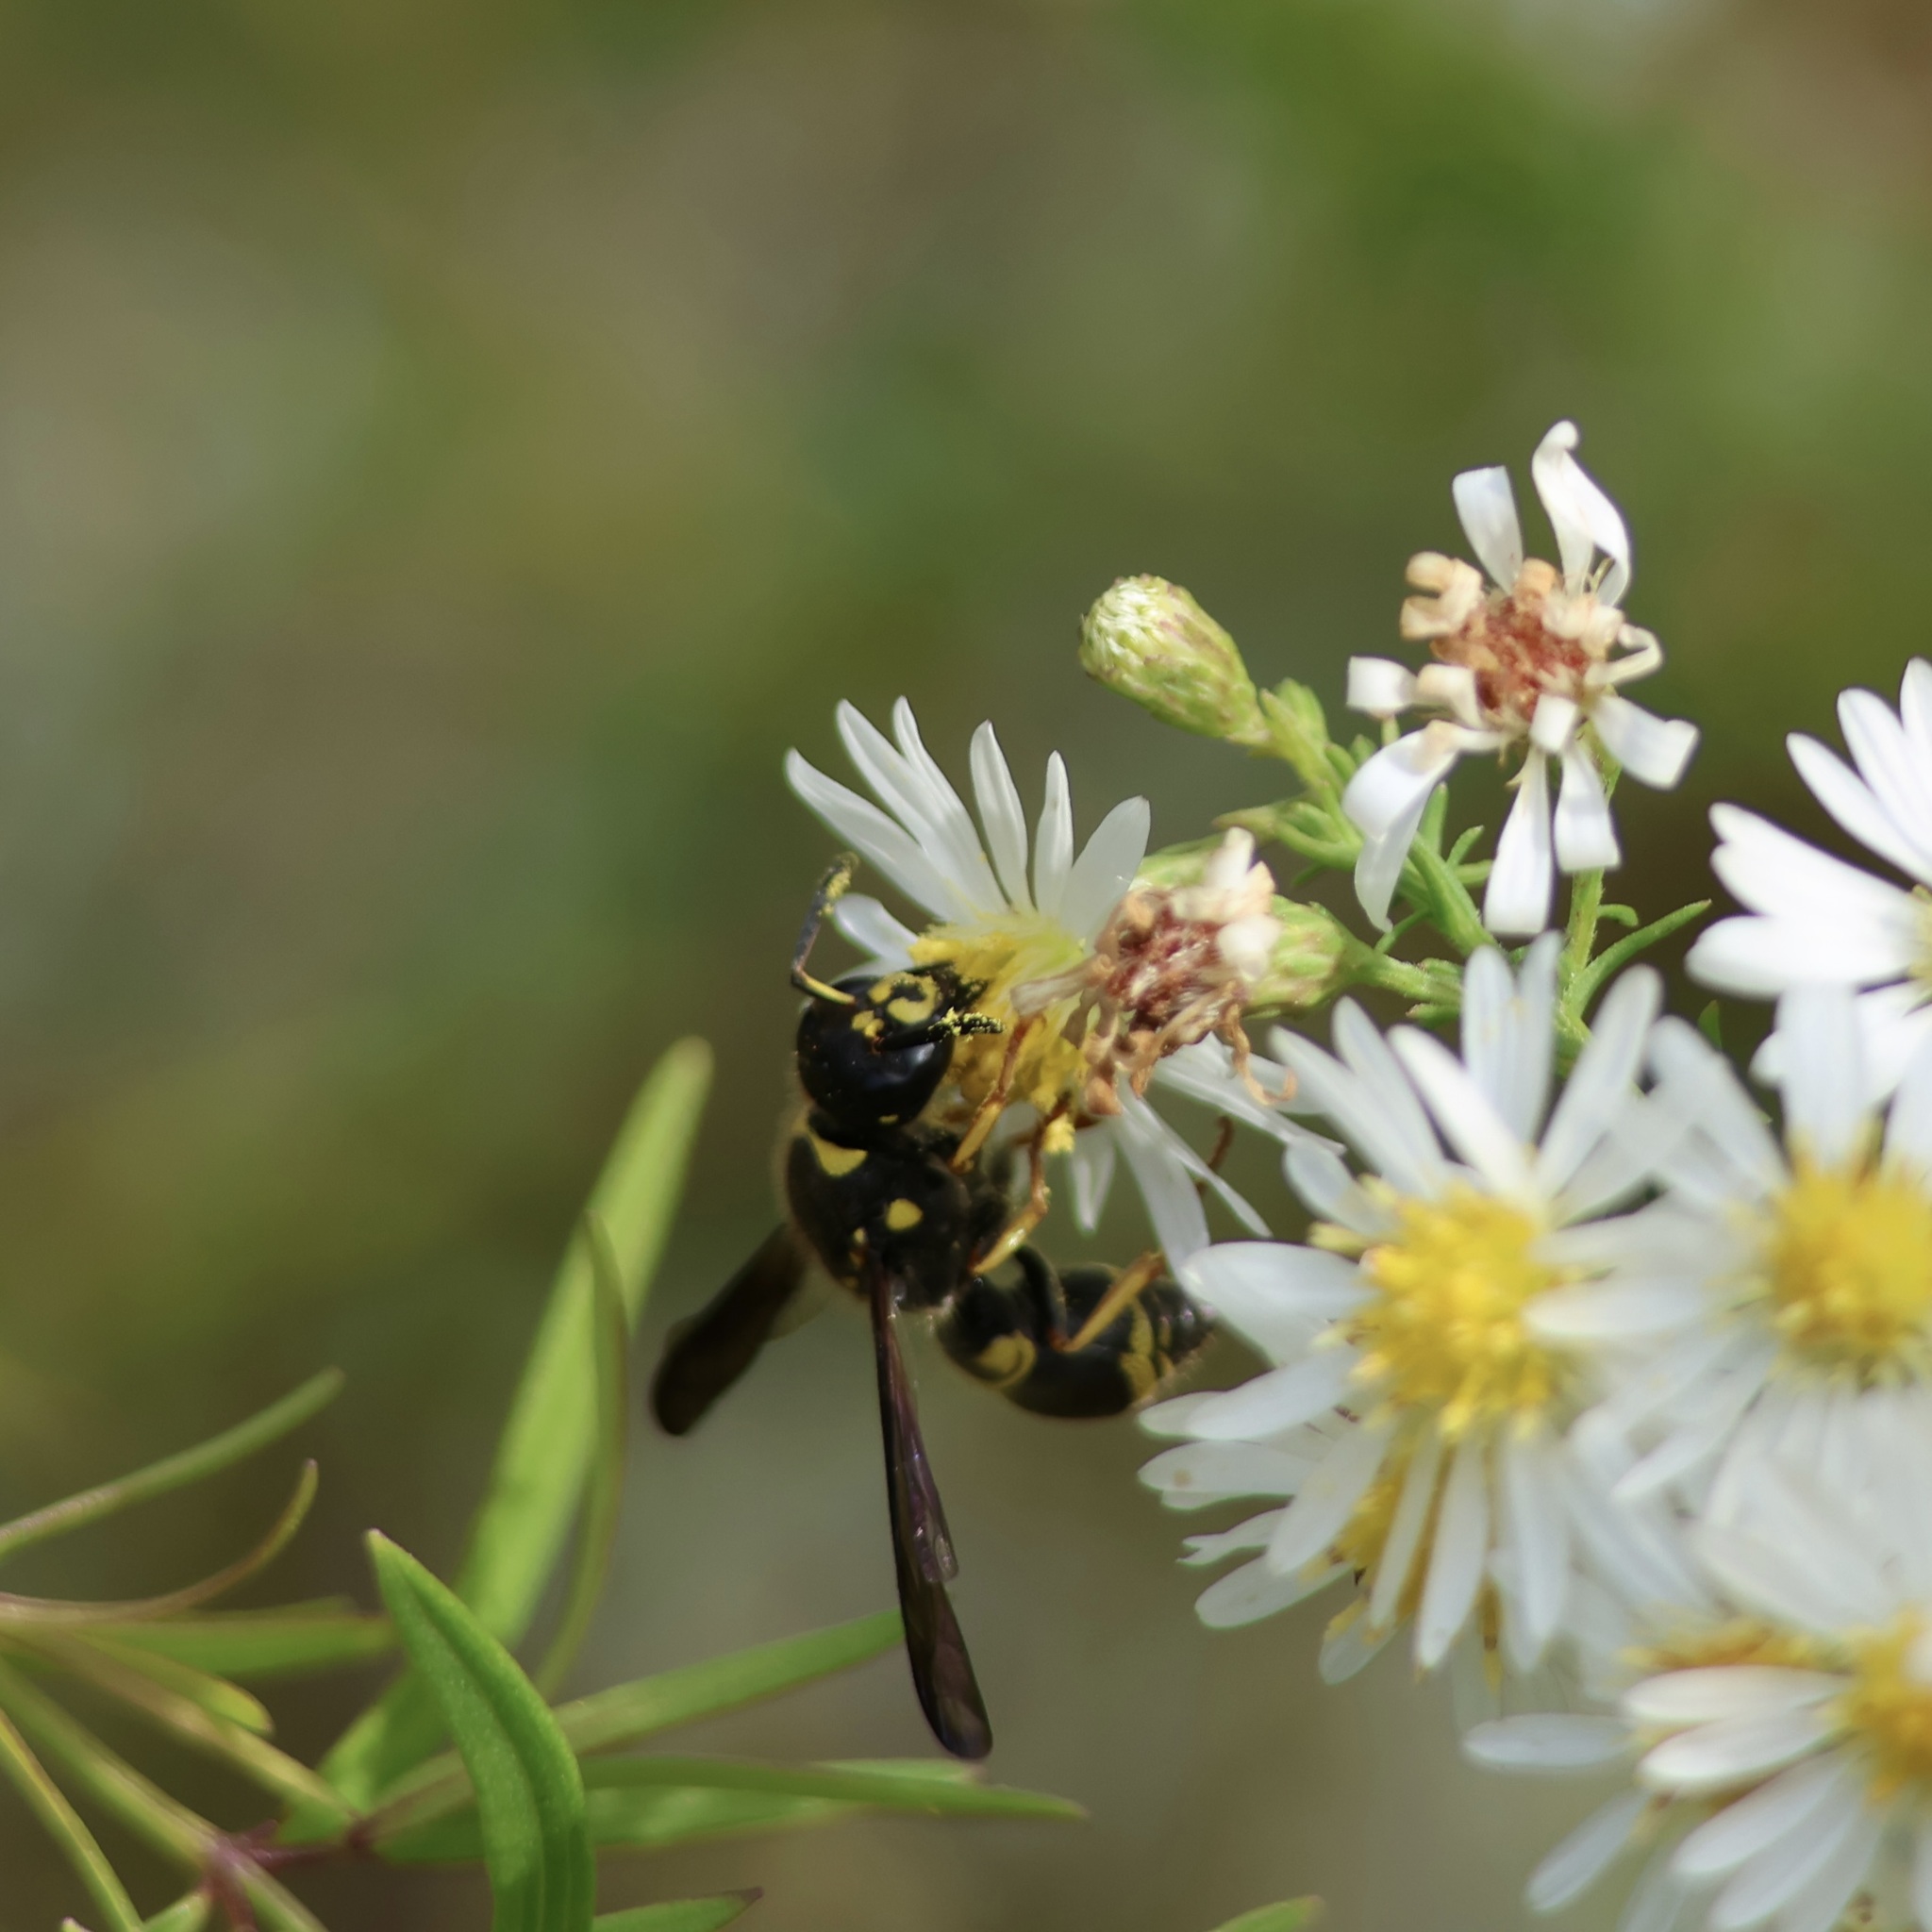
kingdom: Animalia
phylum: Arthropoda
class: Insecta
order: Hymenoptera
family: Vespidae
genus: Ancistrocerus
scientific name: Ancistrocerus campestris
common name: Smiling mason wasp
